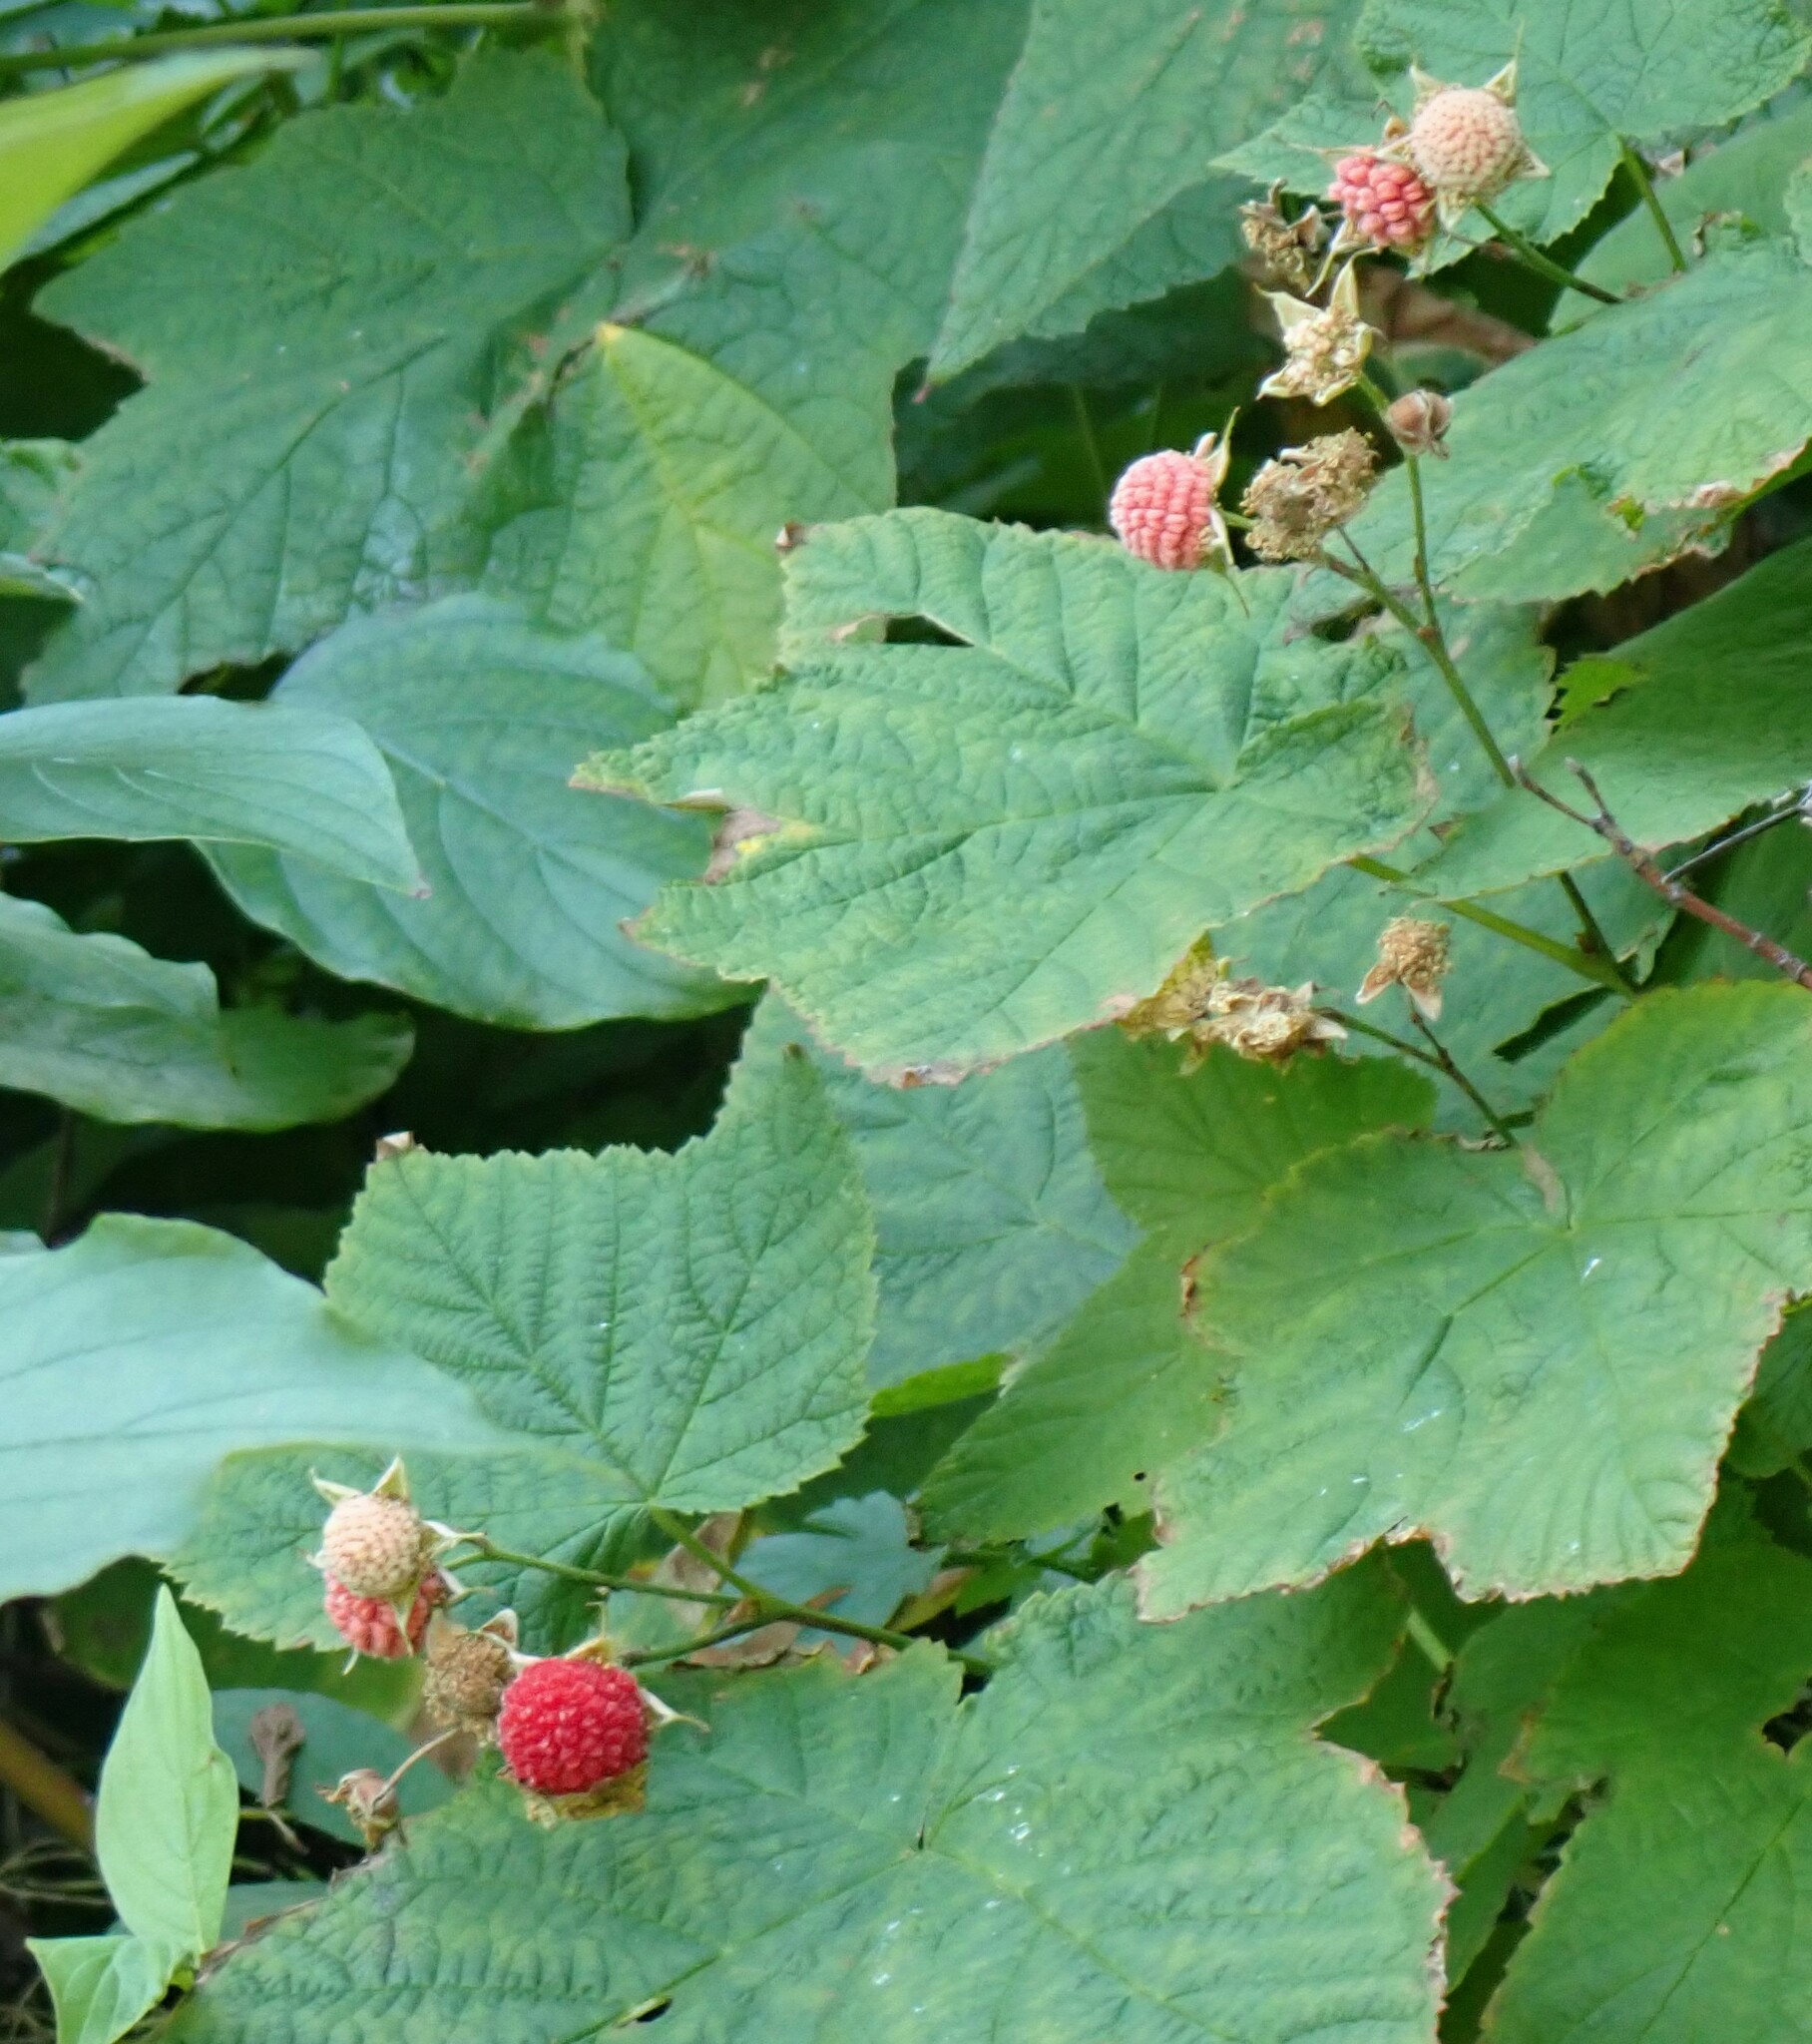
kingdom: Plantae
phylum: Tracheophyta
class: Magnoliopsida
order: Rosales
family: Rosaceae
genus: Rubus
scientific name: Rubus parviflorus
